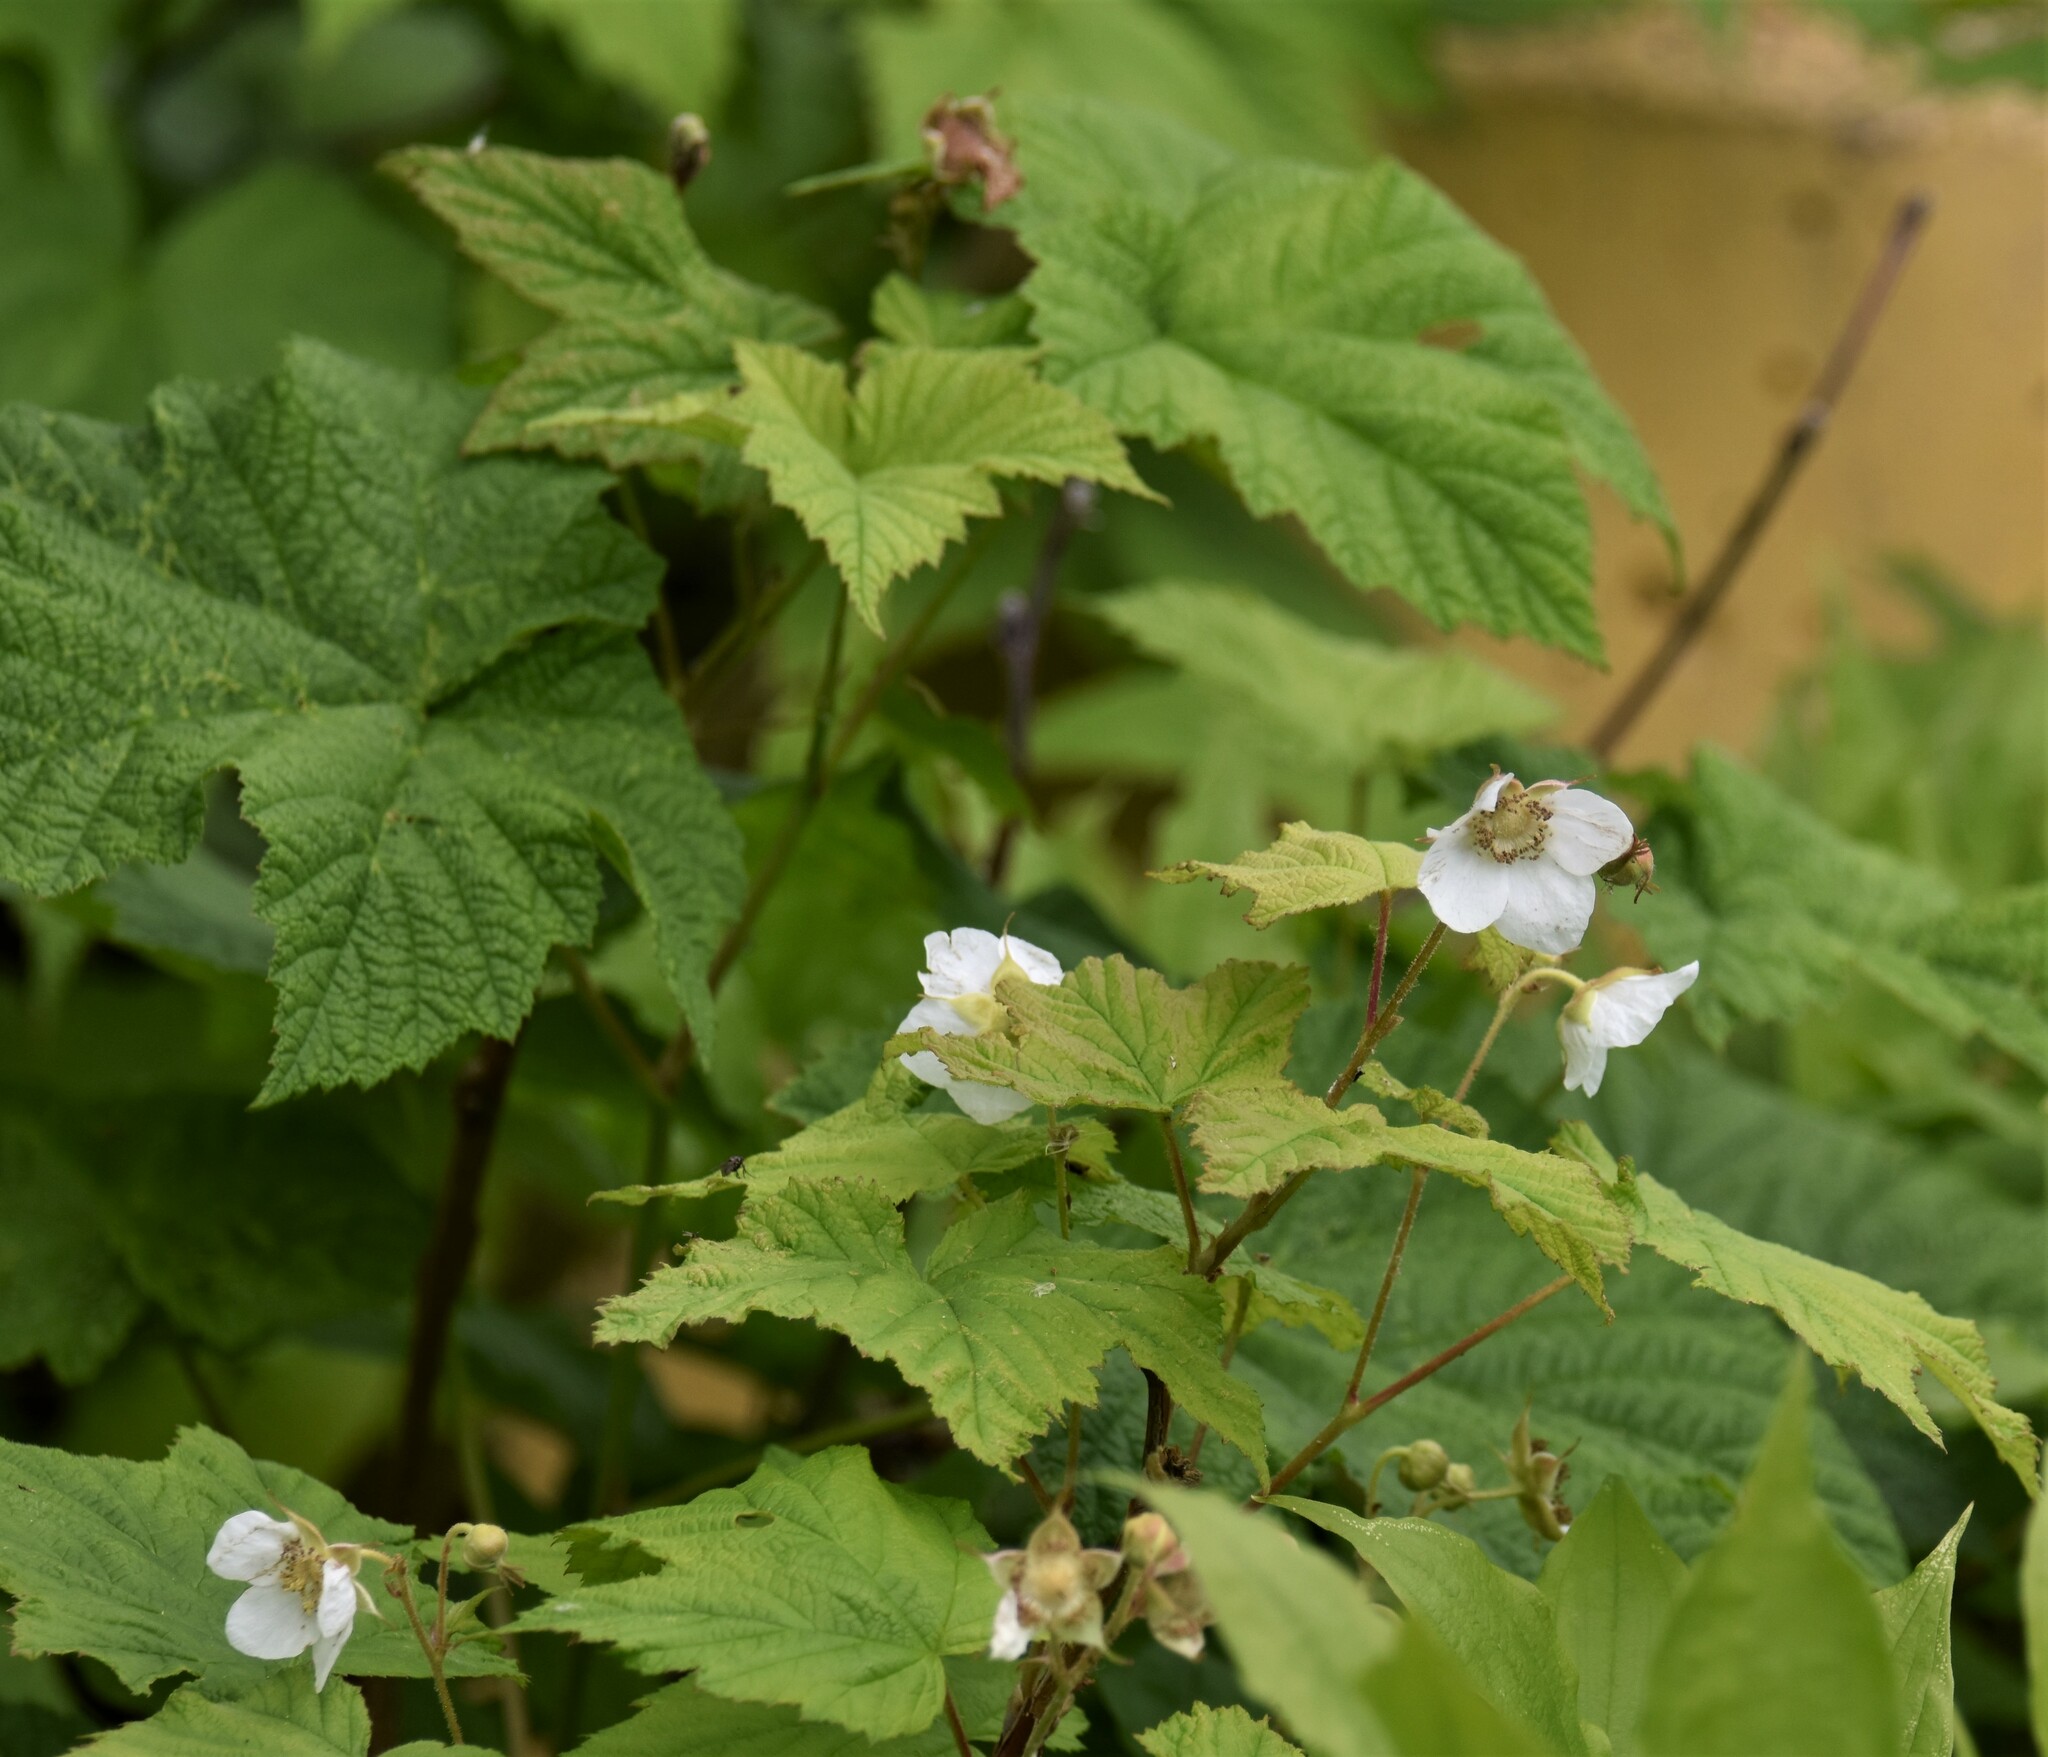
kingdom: Plantae
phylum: Tracheophyta
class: Magnoliopsida
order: Rosales
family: Rosaceae
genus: Rubus
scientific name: Rubus parviflorus
